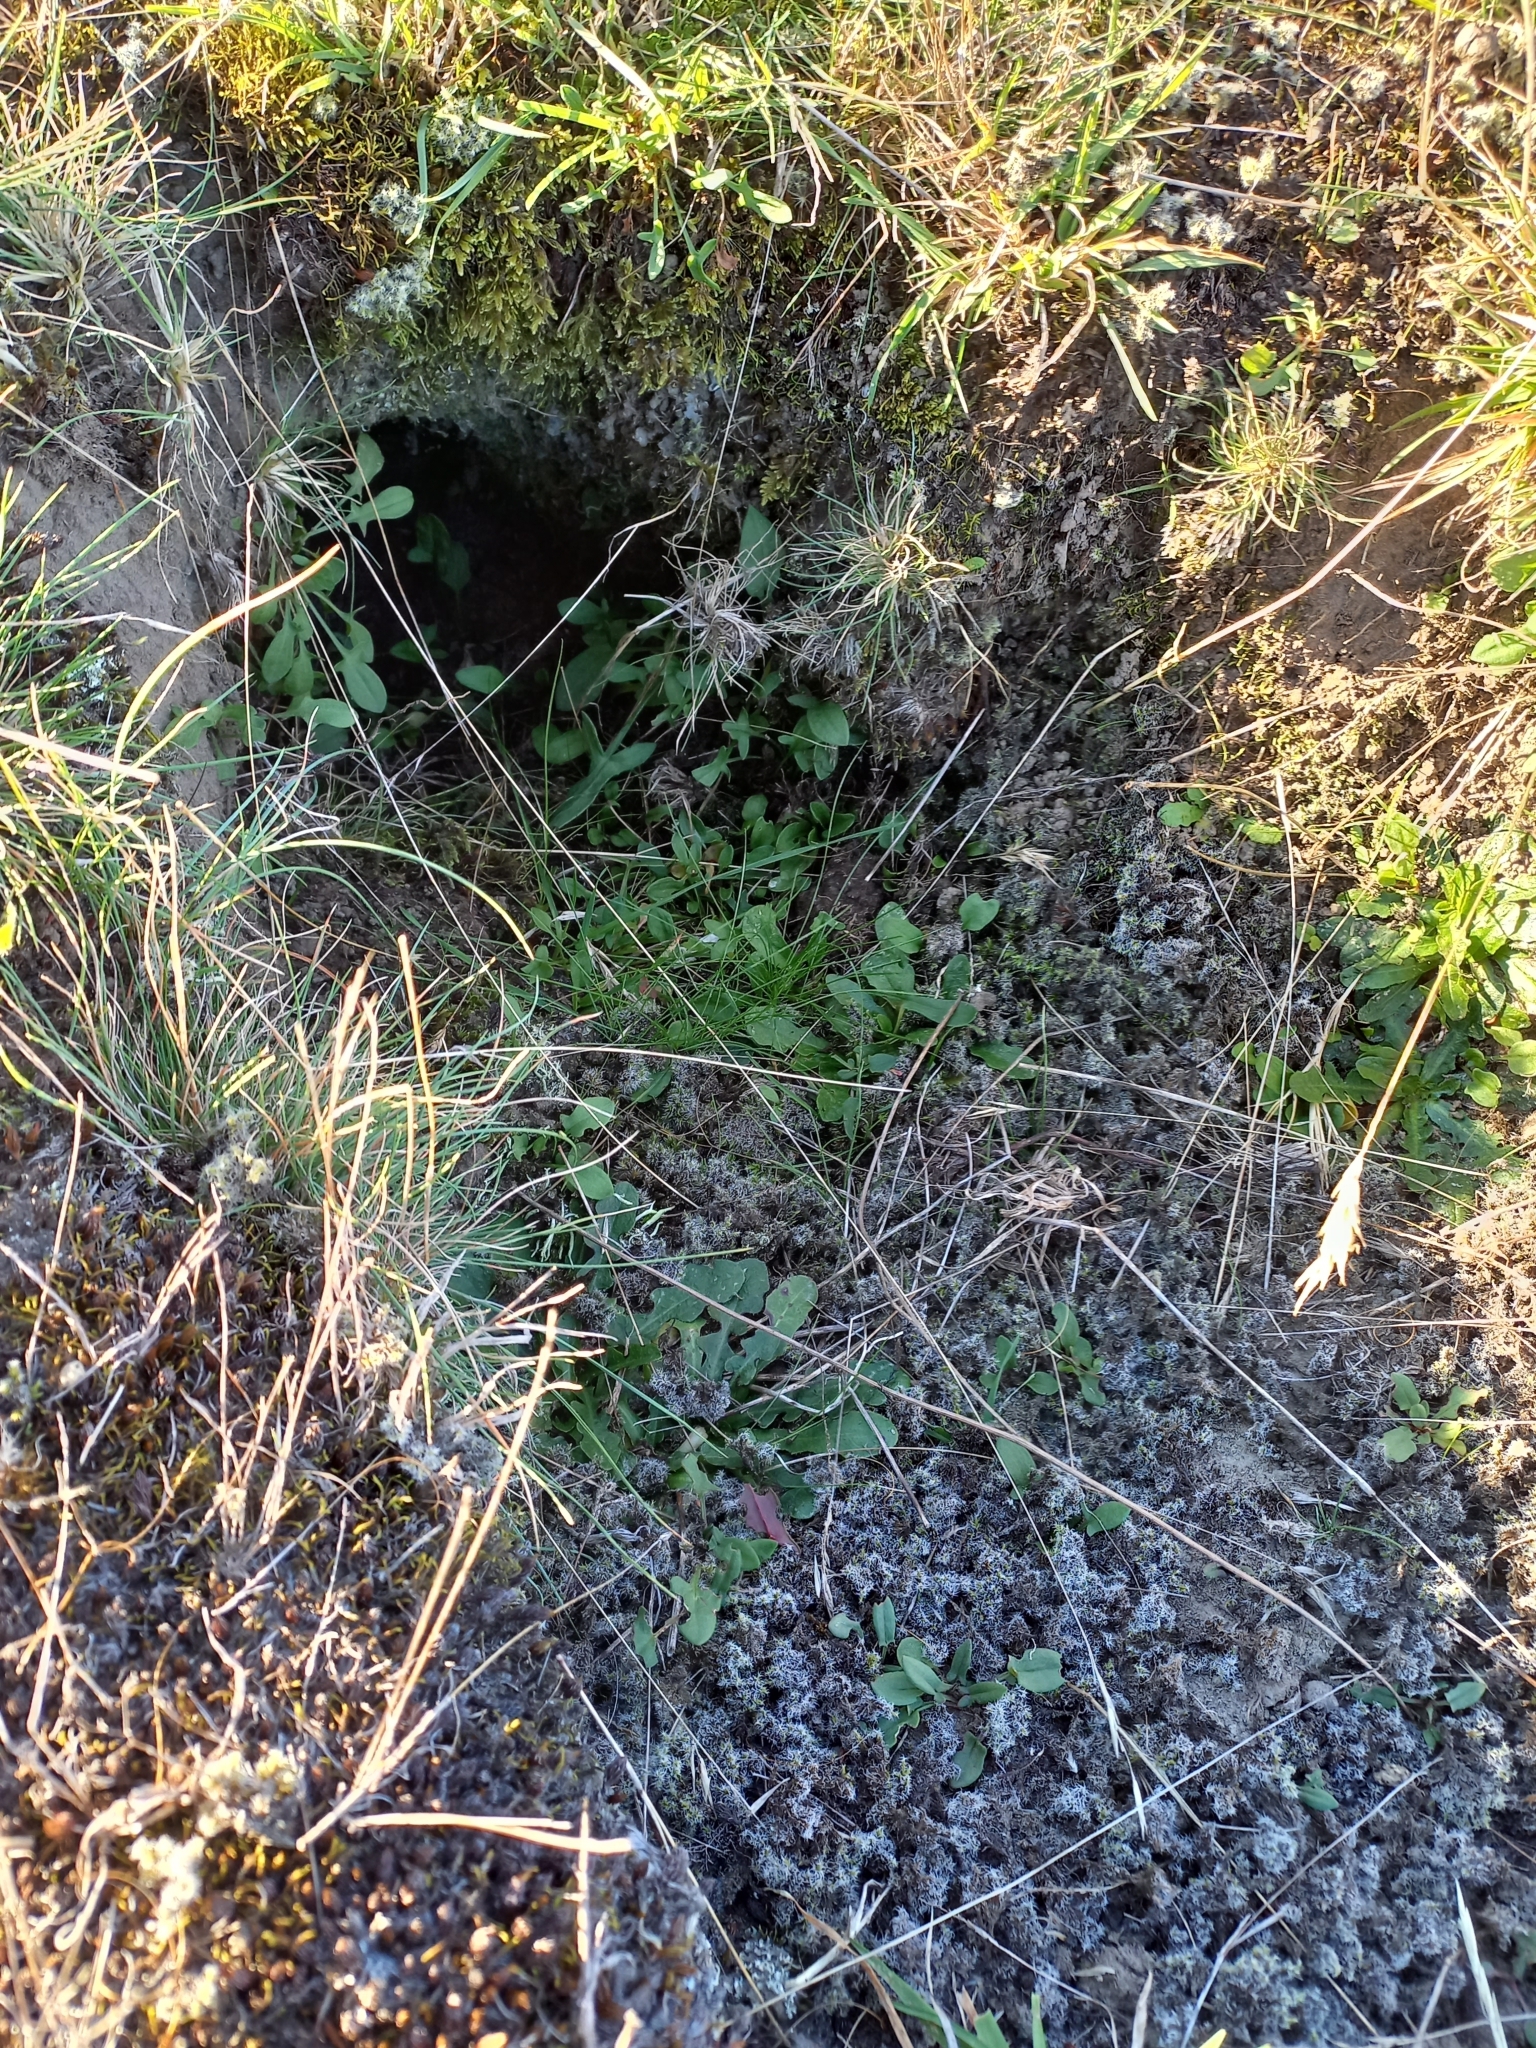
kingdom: Animalia
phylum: Chordata
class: Mammalia
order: Lagomorpha
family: Leporidae
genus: Oryctolagus
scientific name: Oryctolagus cuniculus
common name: European rabbit
